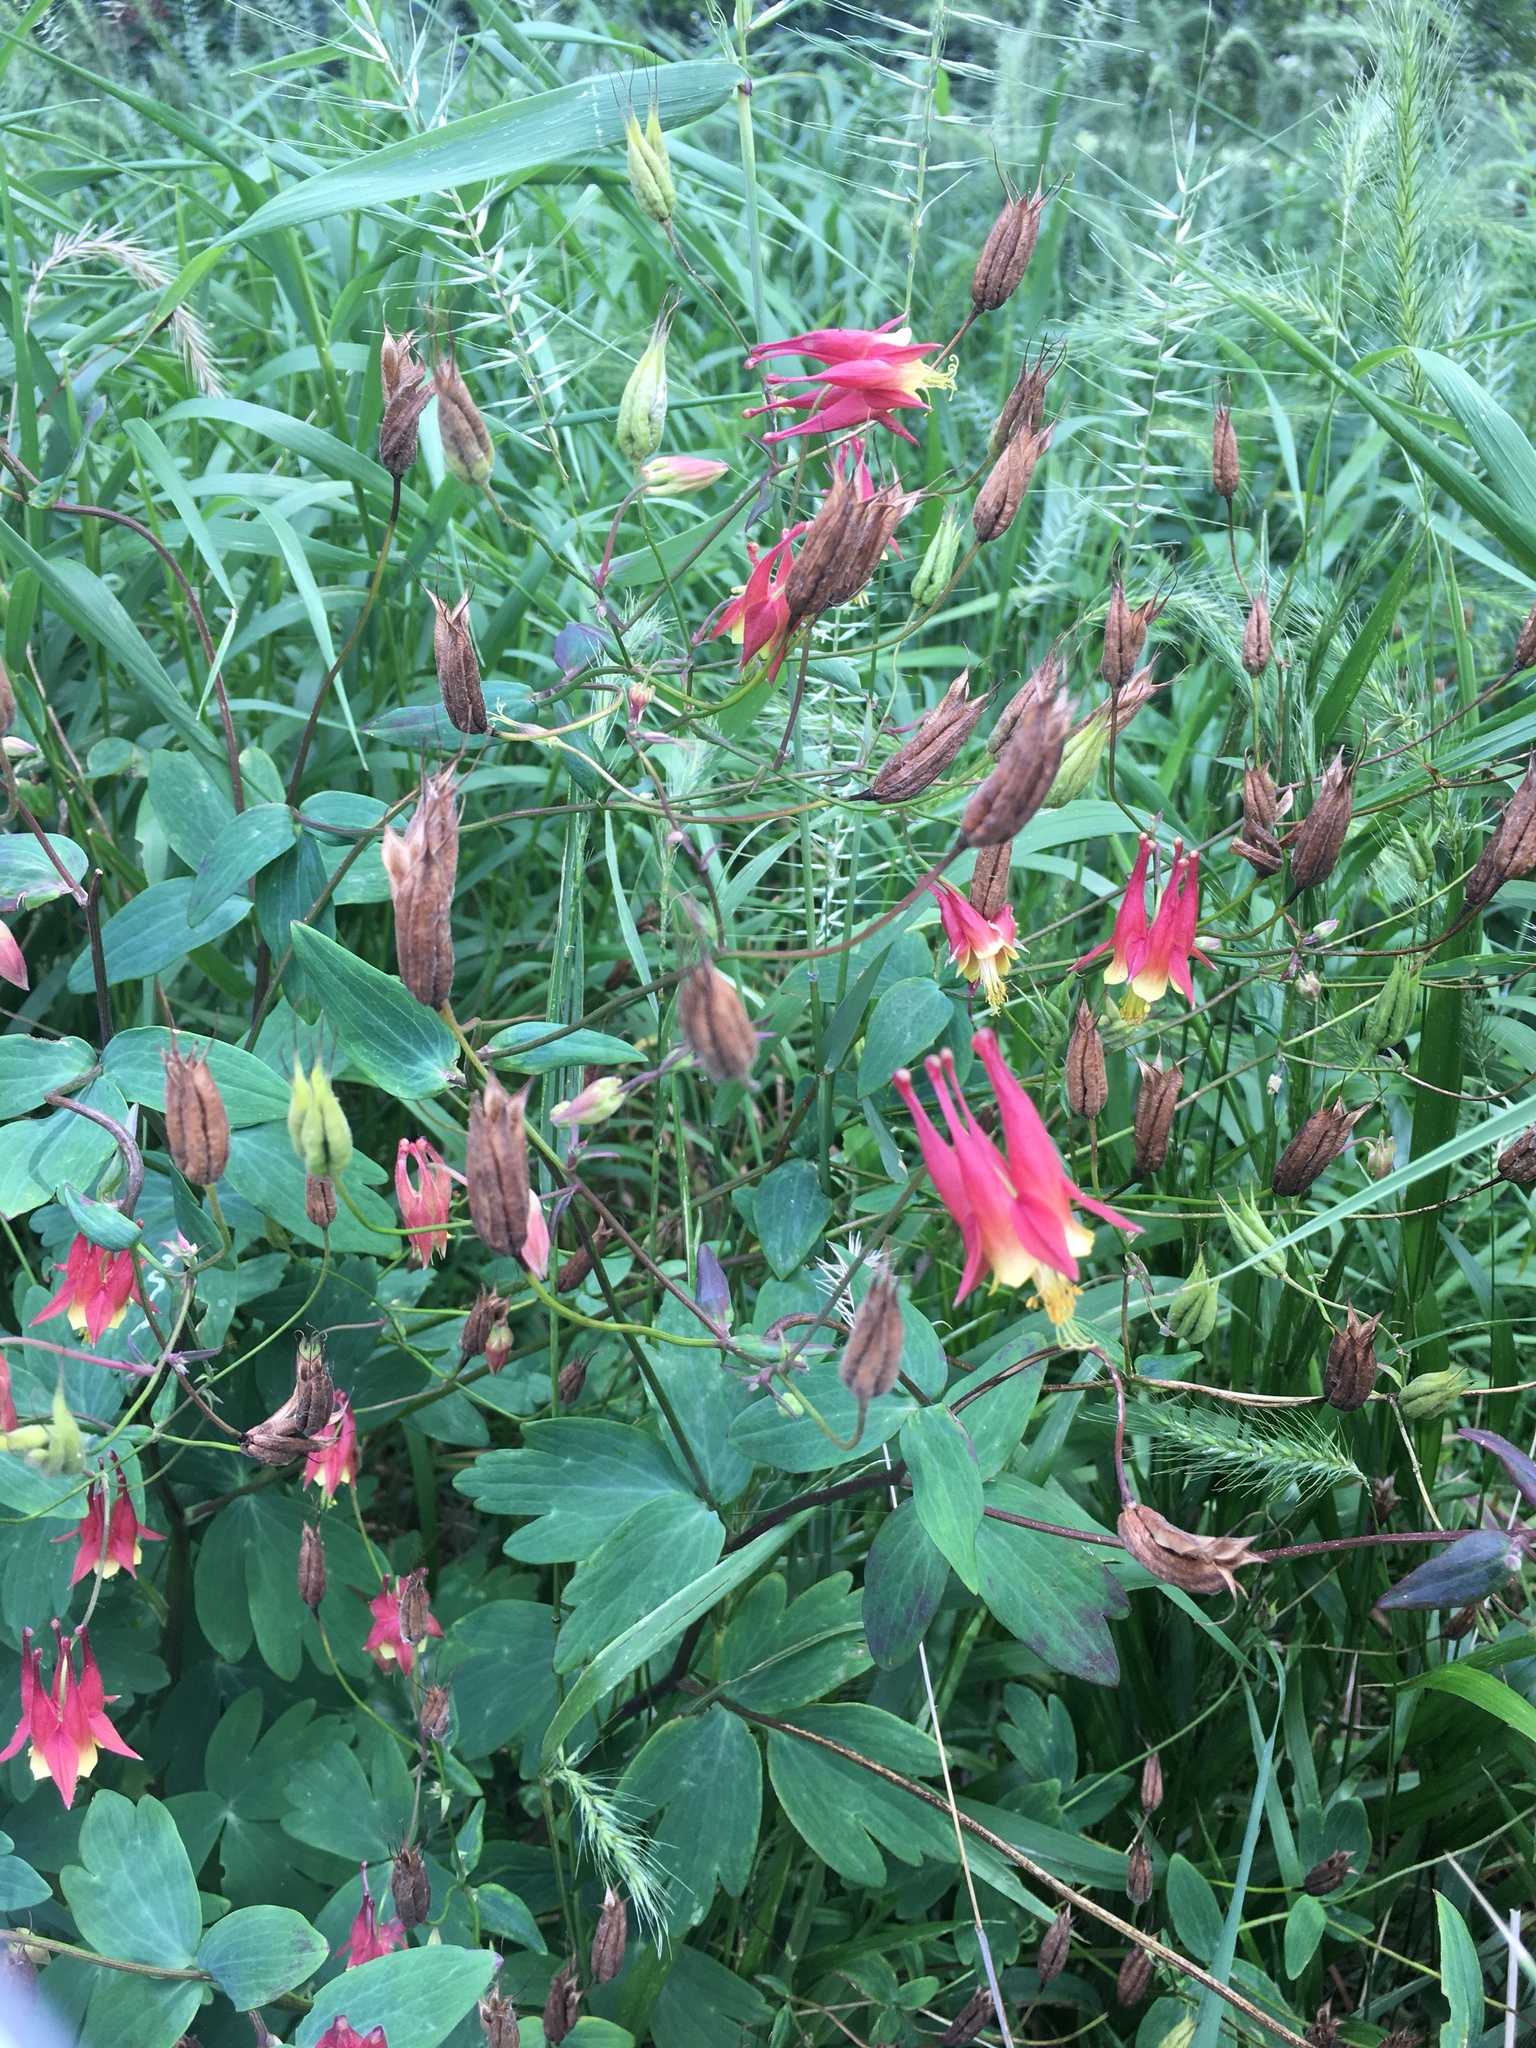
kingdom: Plantae
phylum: Tracheophyta
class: Magnoliopsida
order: Ranunculales
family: Ranunculaceae
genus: Aquilegia
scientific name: Aquilegia canadensis
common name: American columbine
